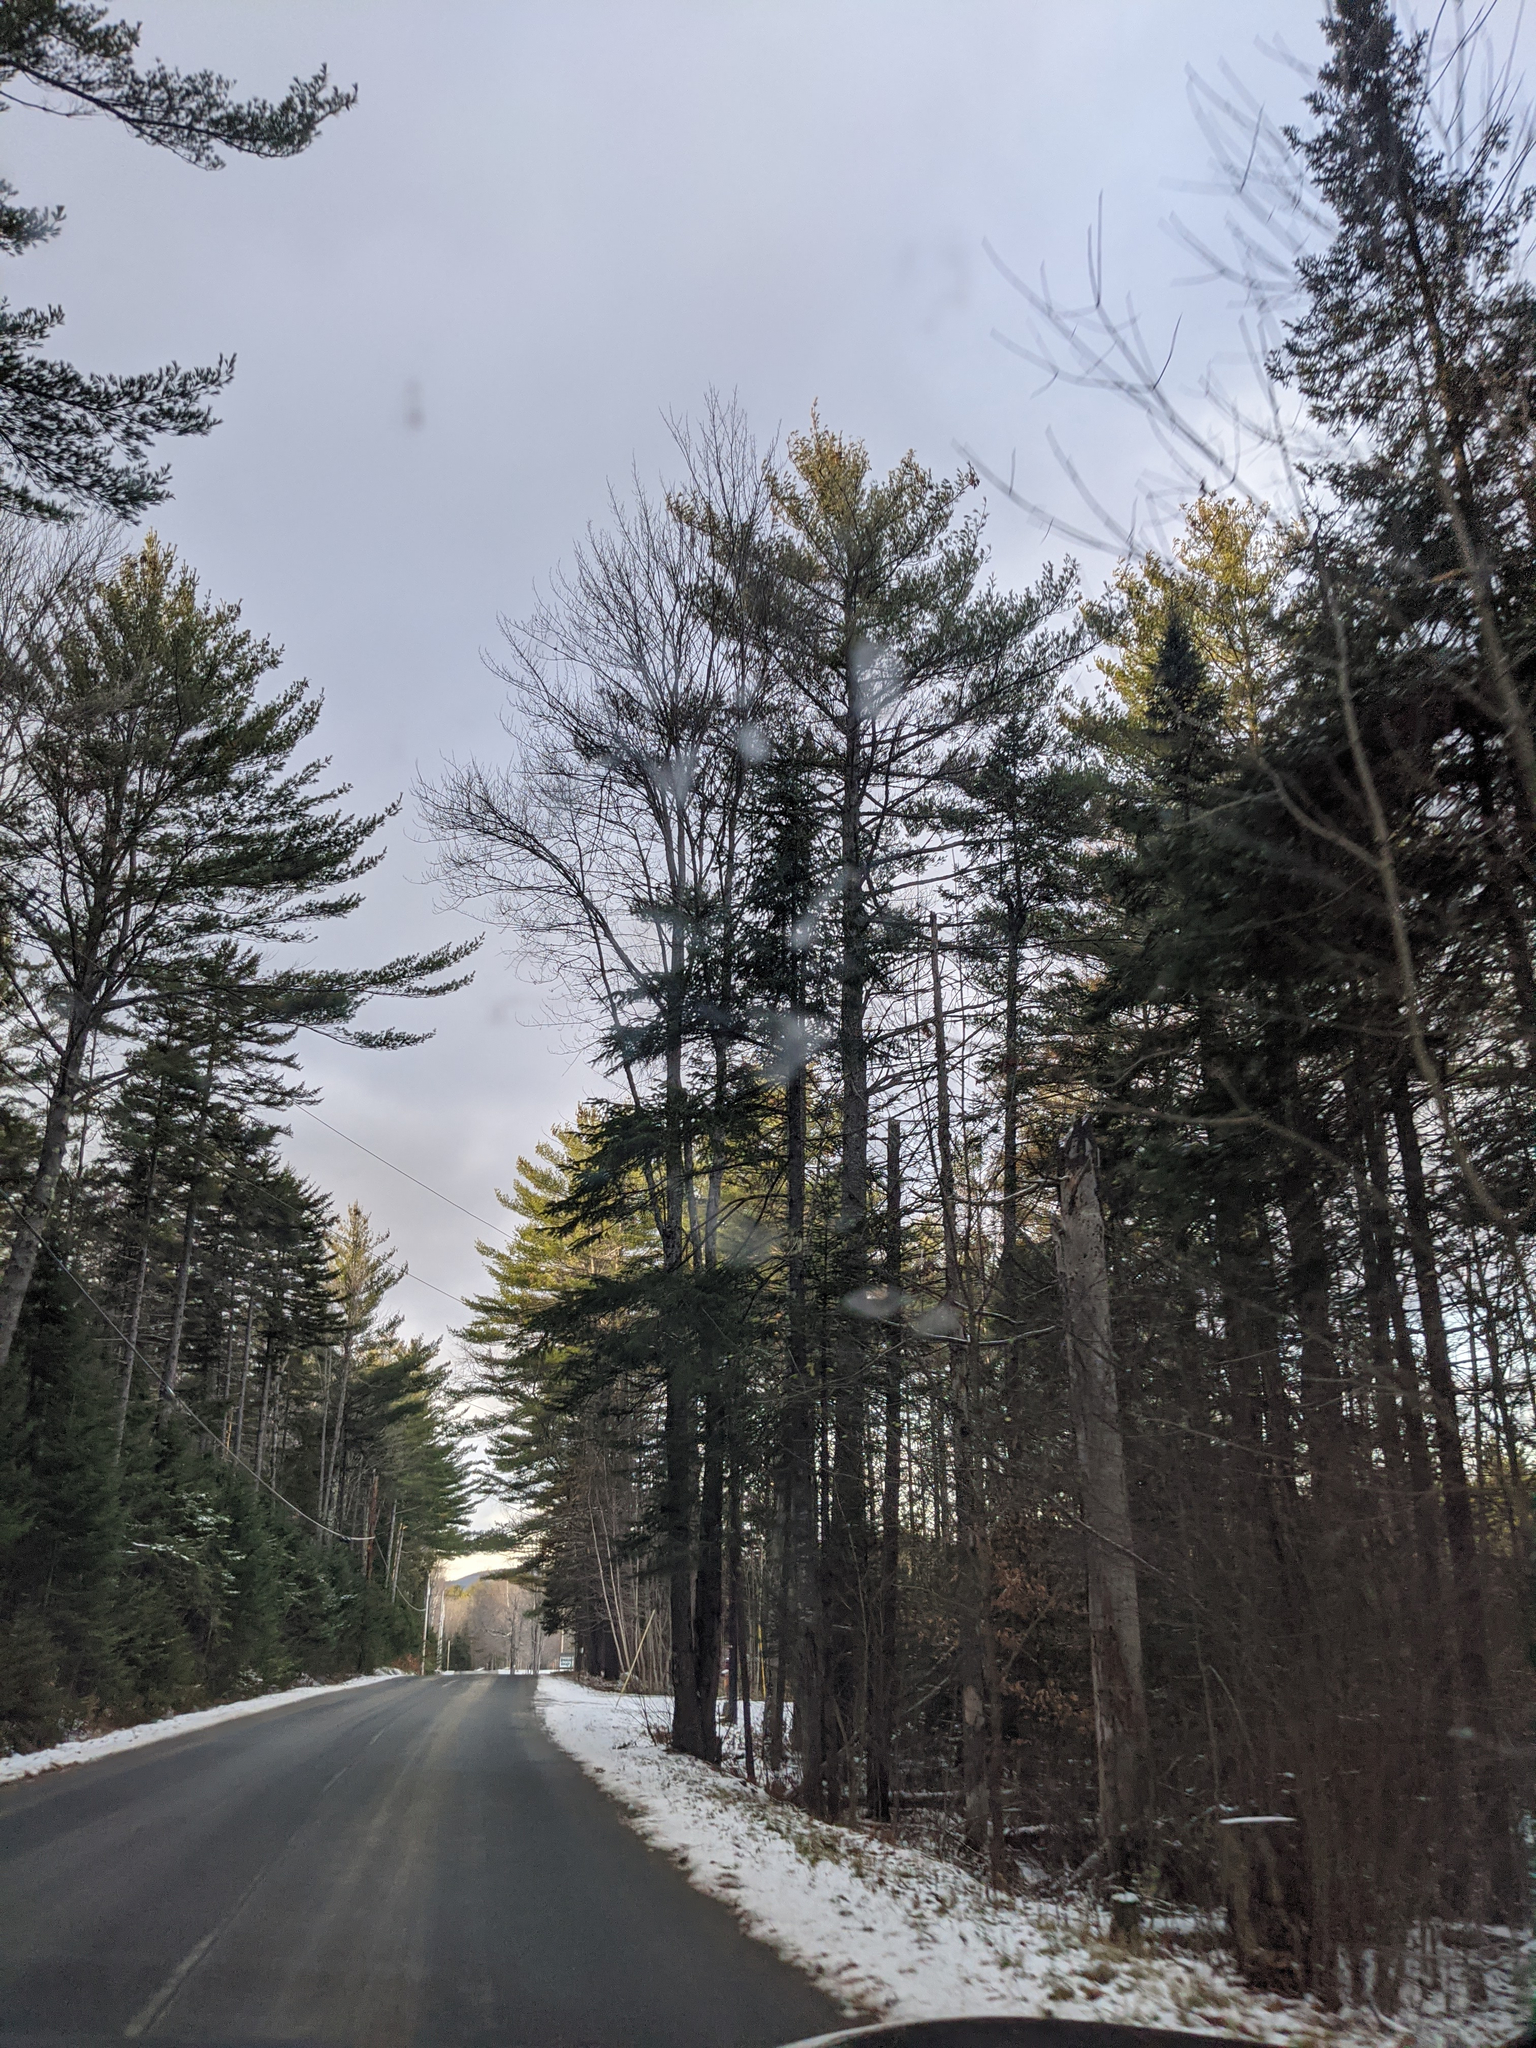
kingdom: Plantae
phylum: Tracheophyta
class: Pinopsida
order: Pinales
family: Pinaceae
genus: Pinus
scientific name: Pinus strobus
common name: Weymouth pine
